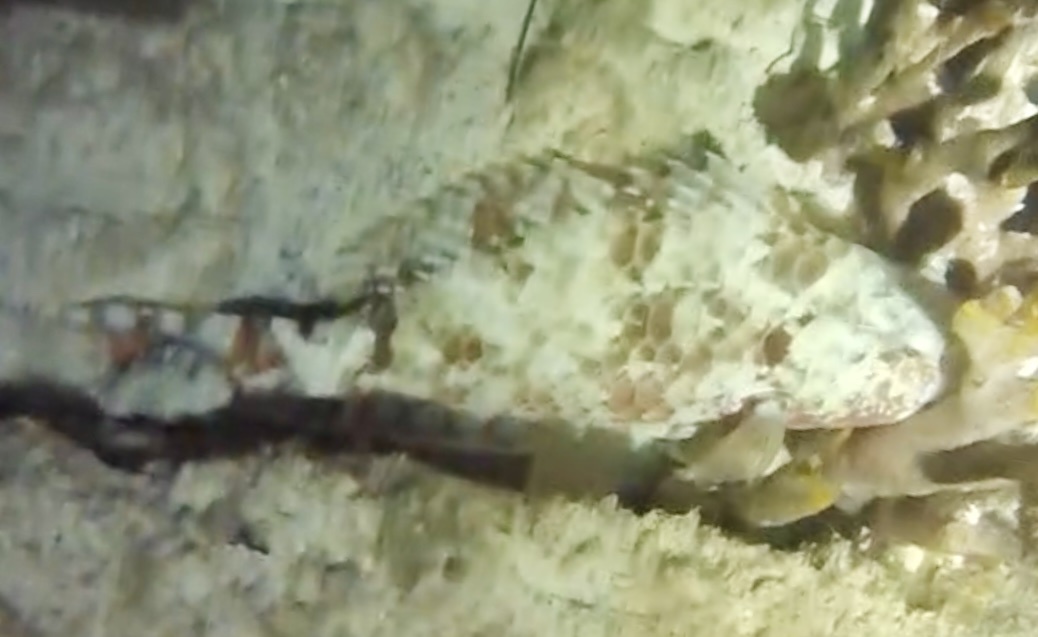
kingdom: Animalia
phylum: Chordata
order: Perciformes
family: Scaridae
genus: Sparisoma
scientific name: Sparisoma chrysopterum
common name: Redtail parrotfish
